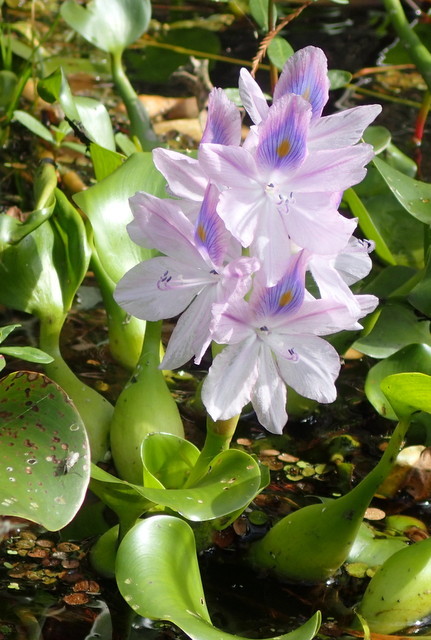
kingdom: Plantae
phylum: Tracheophyta
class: Liliopsida
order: Commelinales
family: Pontederiaceae
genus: Pontederia
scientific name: Pontederia crassipes
